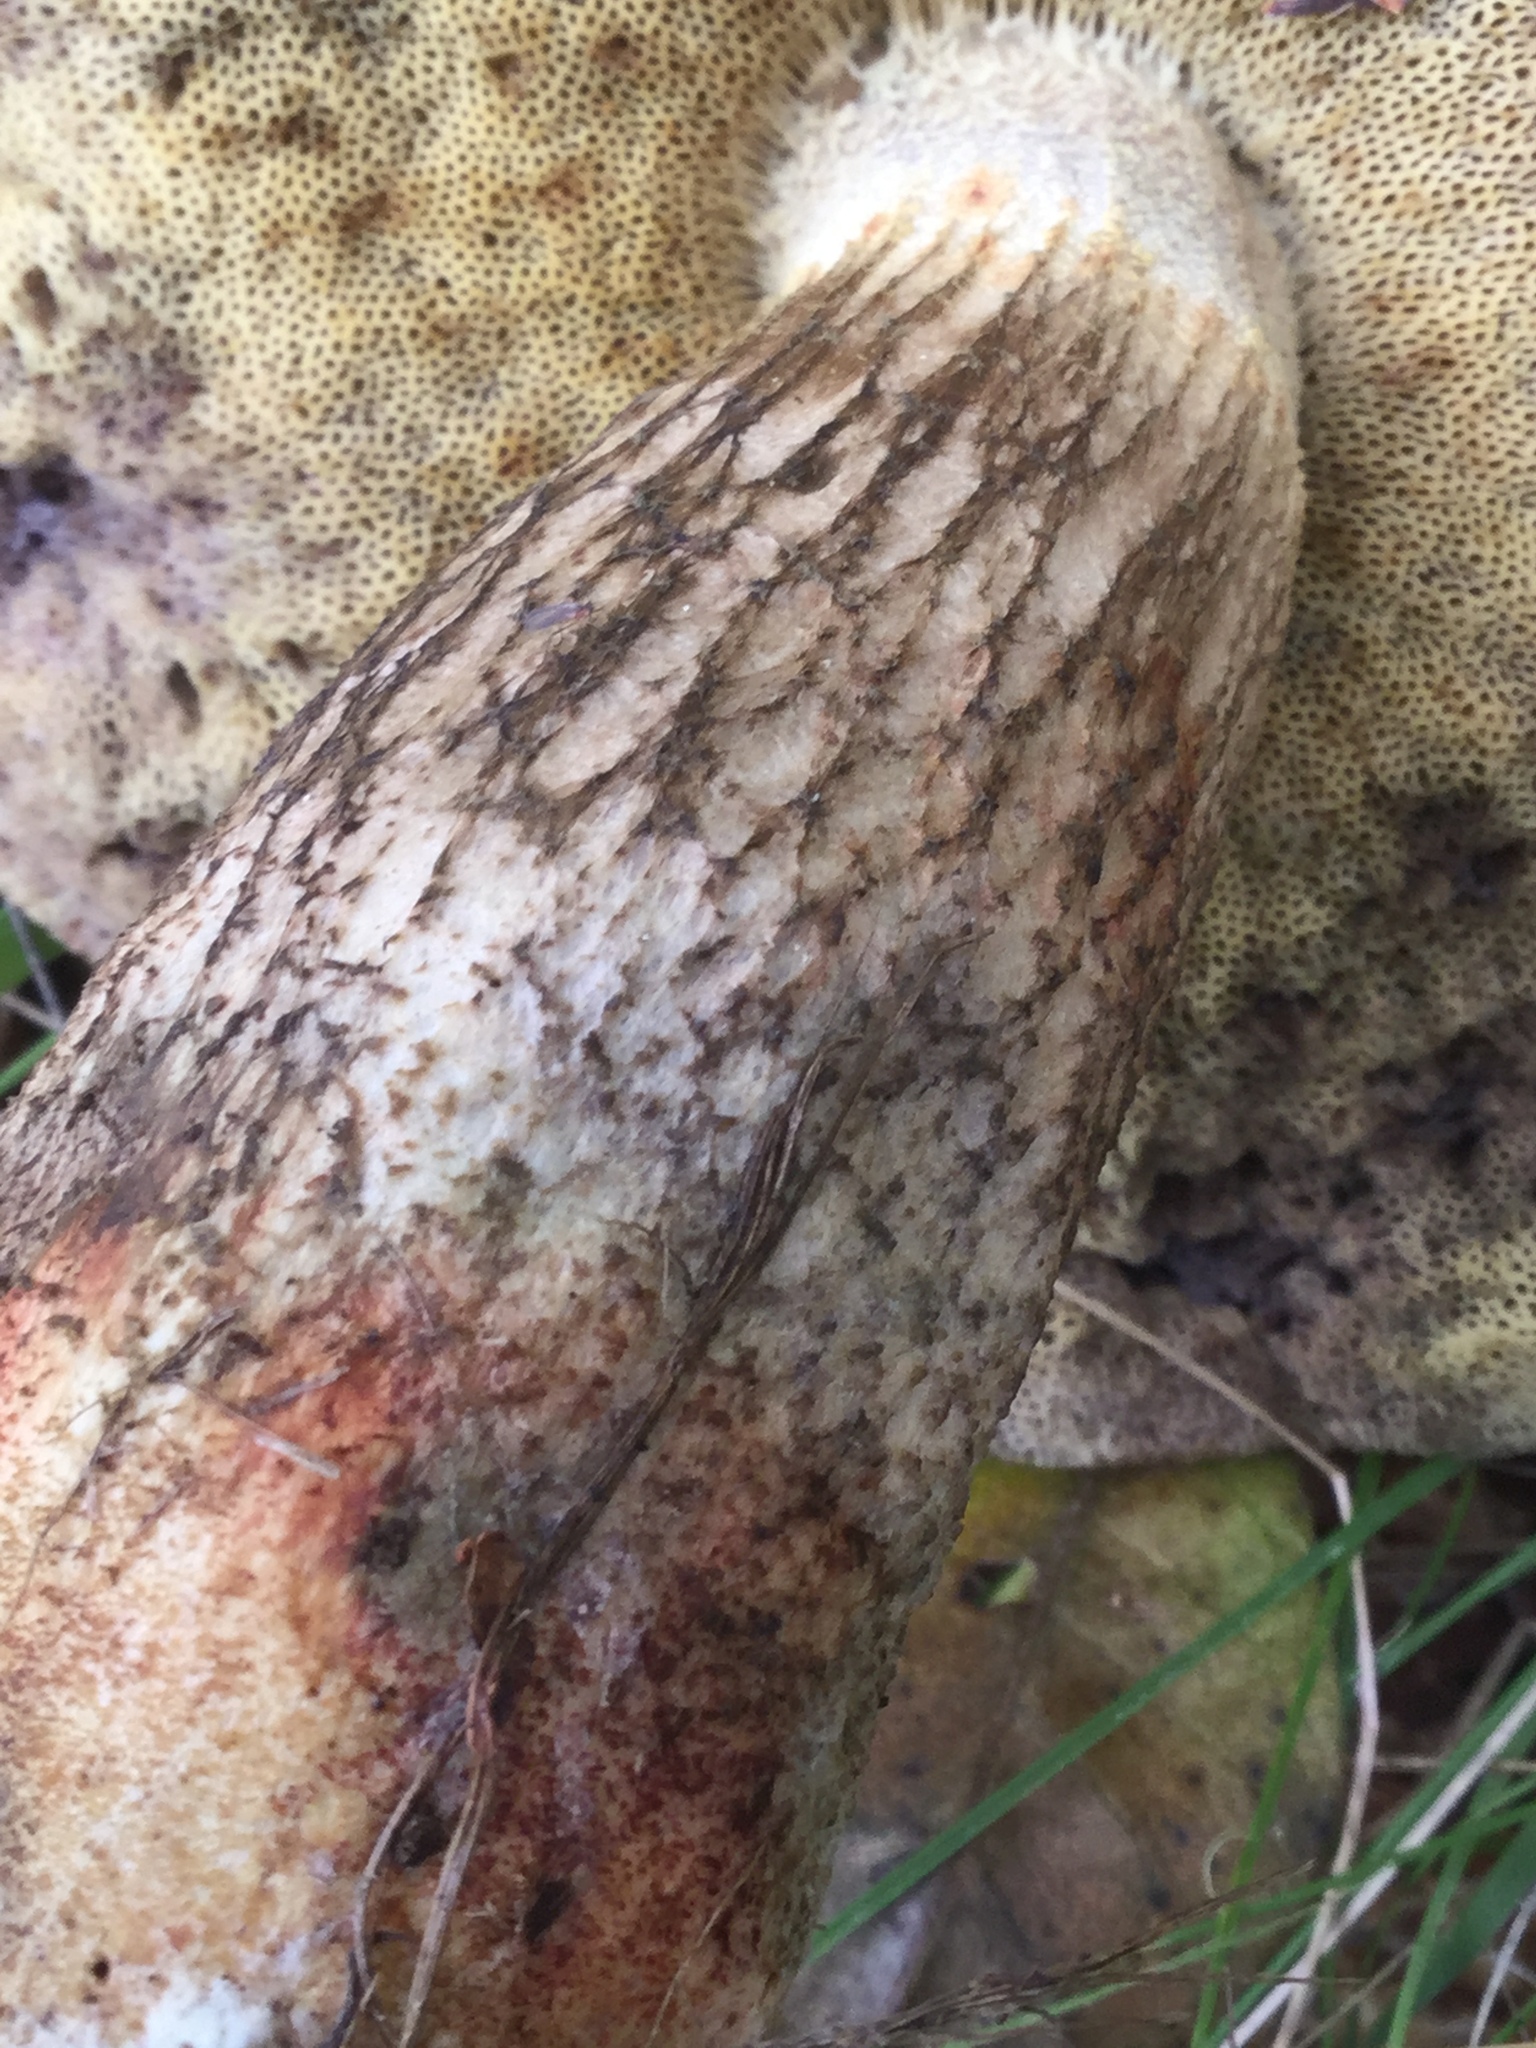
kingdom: Fungi
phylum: Basidiomycota
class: Agaricomycetes
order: Boletales
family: Boletaceae
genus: Leccinellum
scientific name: Leccinellum rugosiceps
